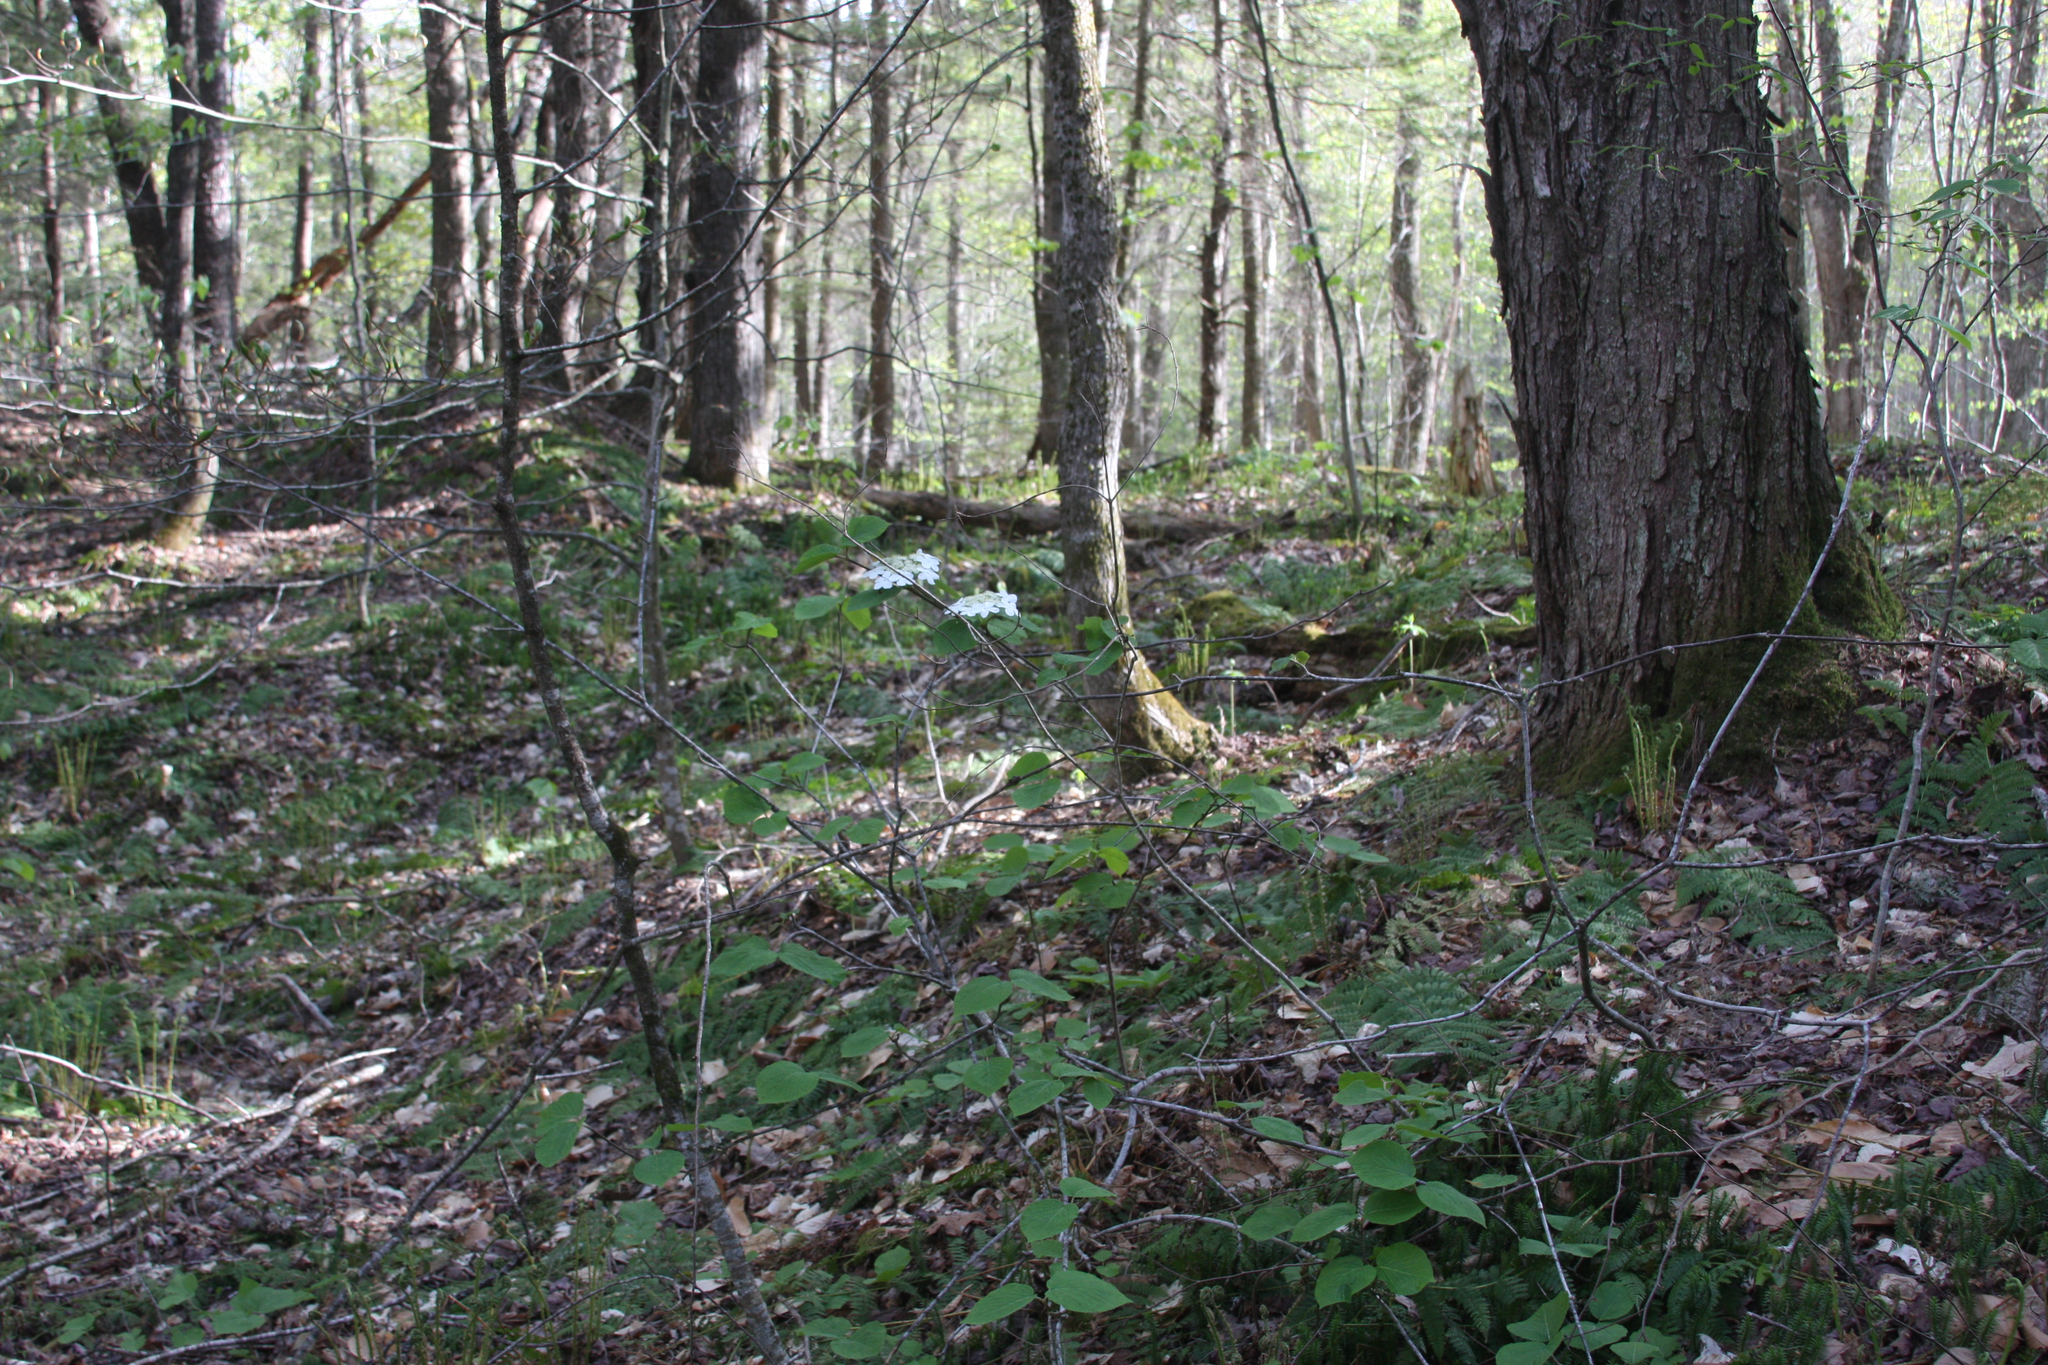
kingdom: Plantae
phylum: Tracheophyta
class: Magnoliopsida
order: Dipsacales
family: Viburnaceae
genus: Viburnum
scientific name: Viburnum lantanoides
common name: Hobblebush
